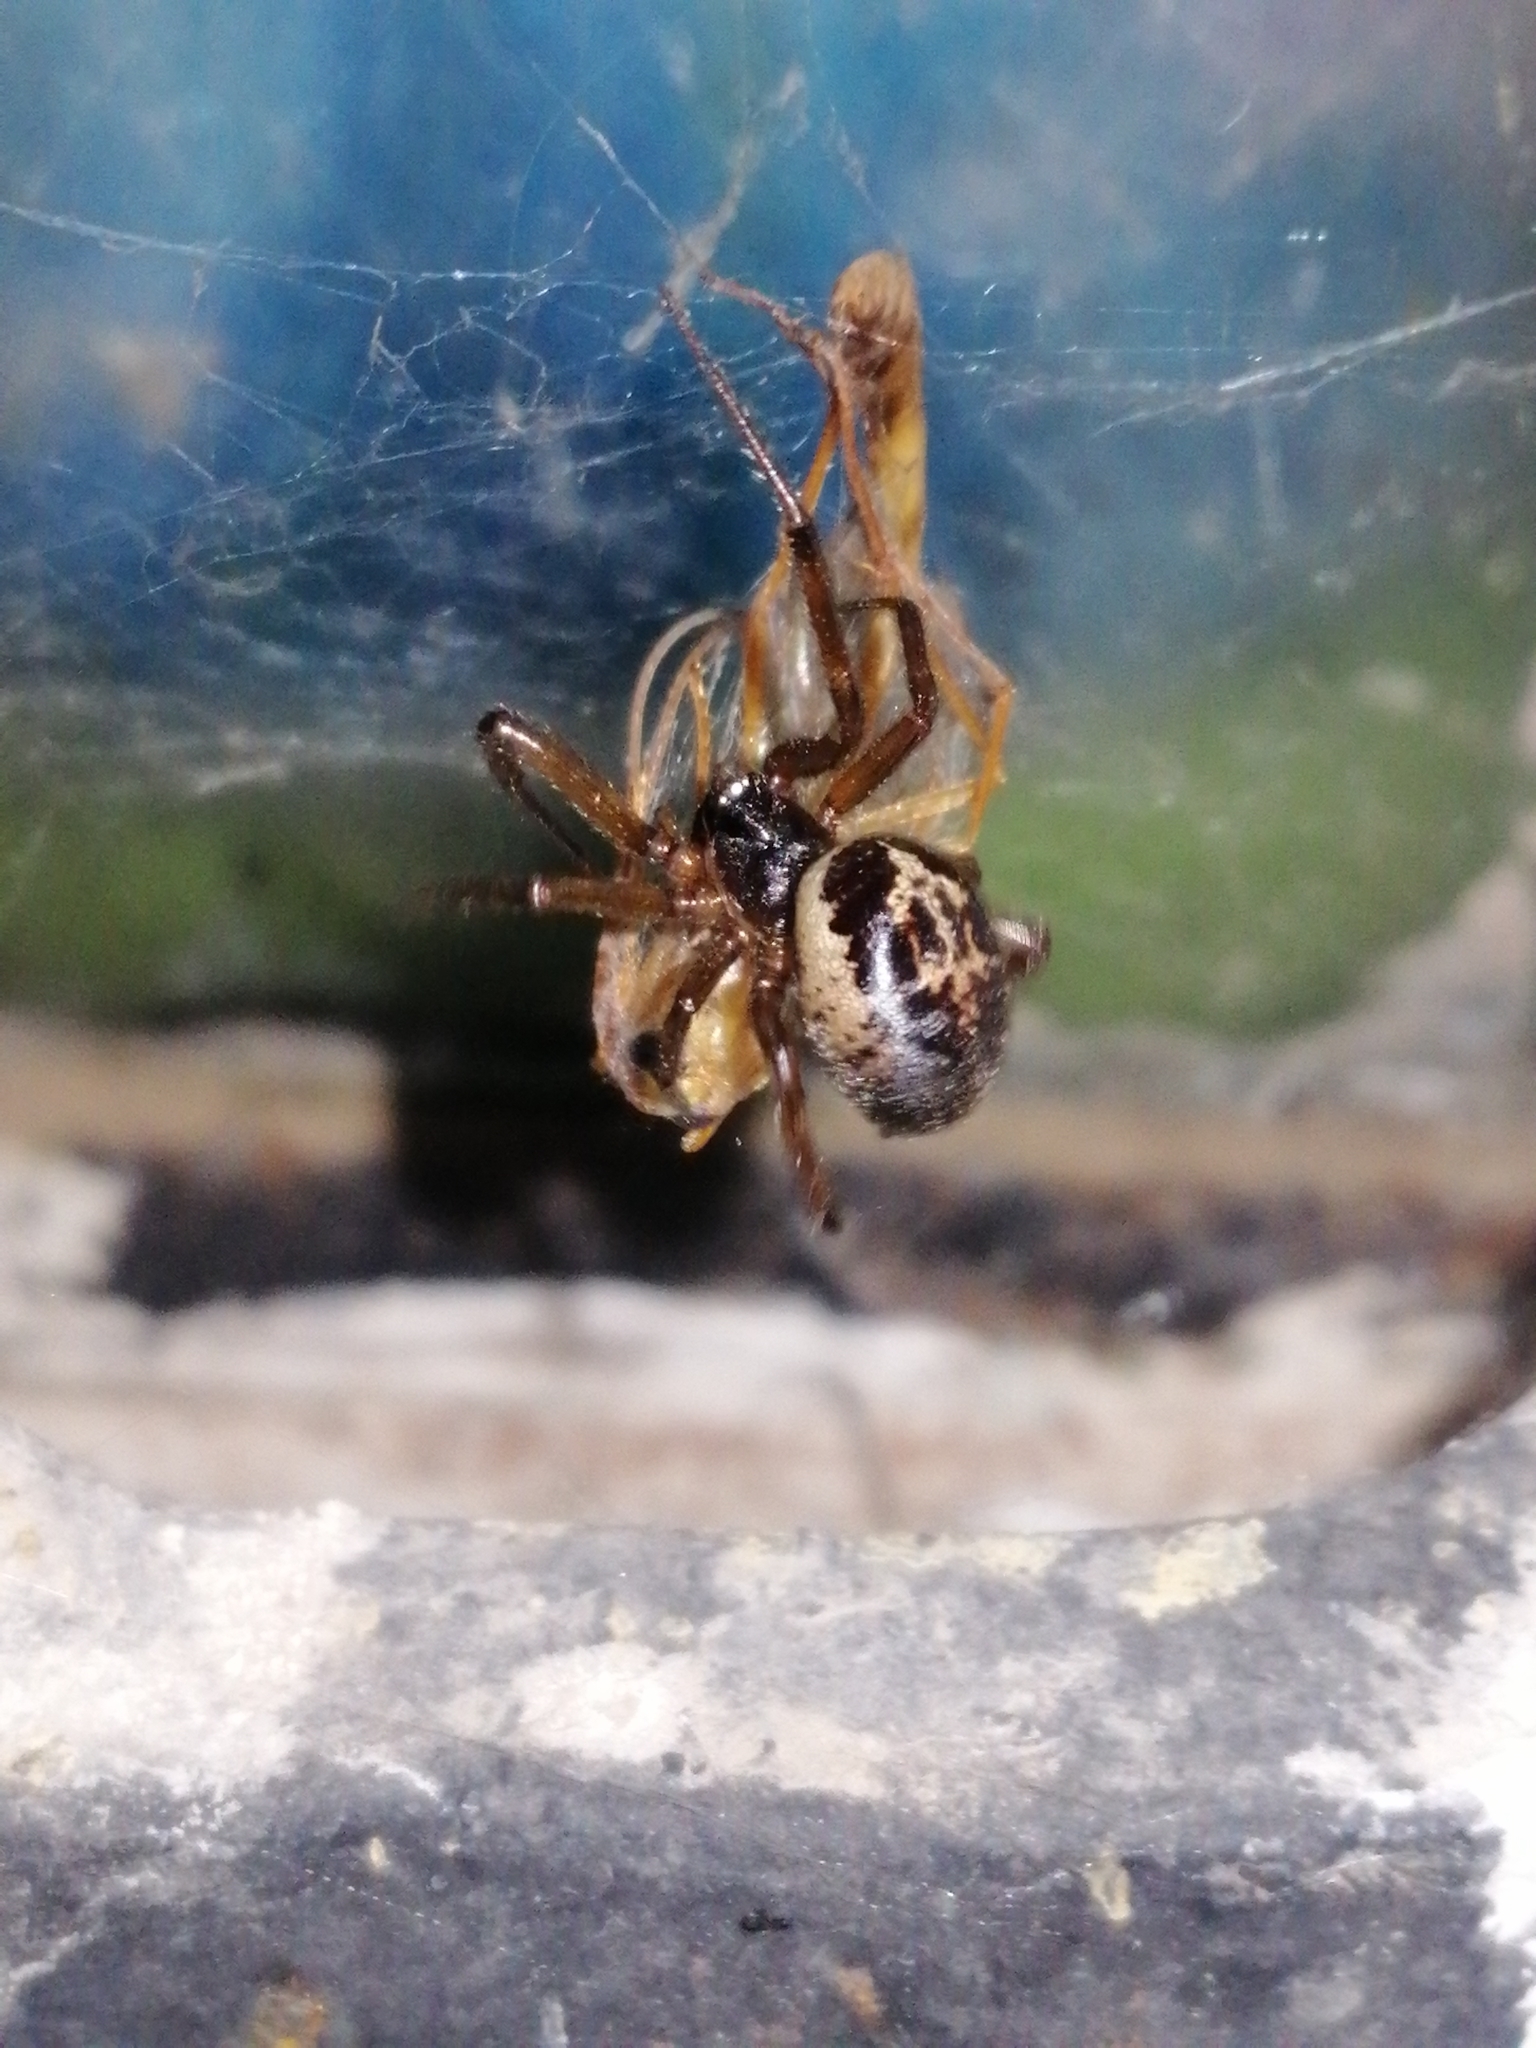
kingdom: Animalia
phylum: Arthropoda
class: Arachnida
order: Araneae
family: Theridiidae
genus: Steatoda
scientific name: Steatoda nobilis
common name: Cobweb weaver
